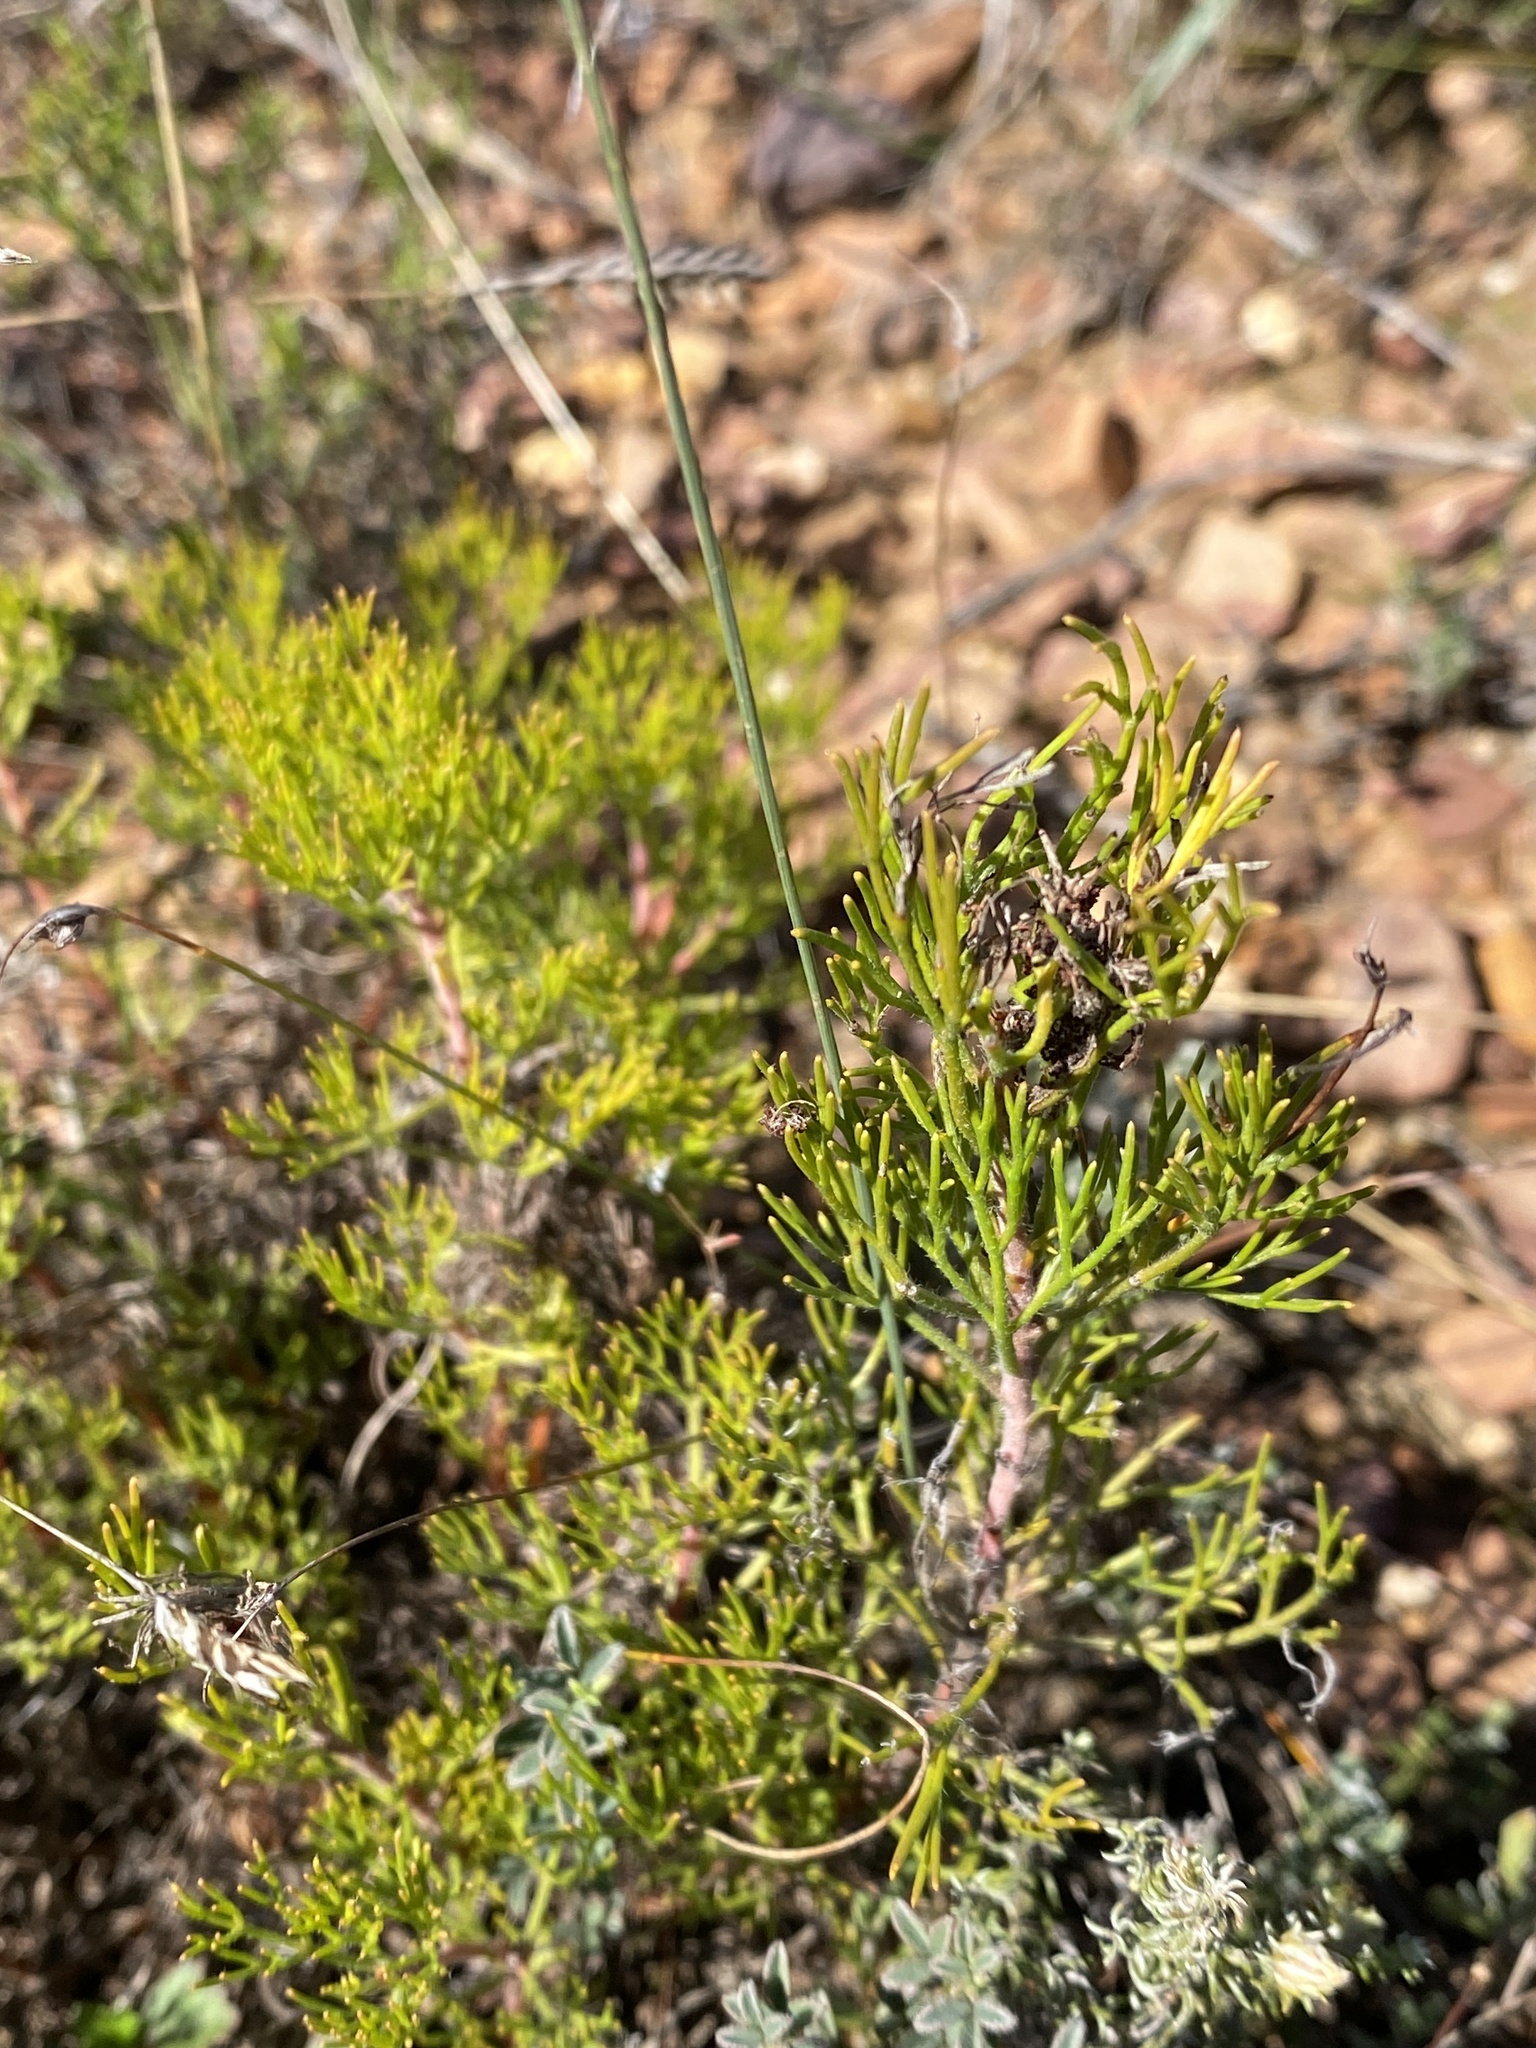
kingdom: Plantae
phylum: Tracheophyta
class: Magnoliopsida
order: Proteales
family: Proteaceae
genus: Serruria
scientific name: Serruria gremialis
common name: Riviersonderend spiderhead
